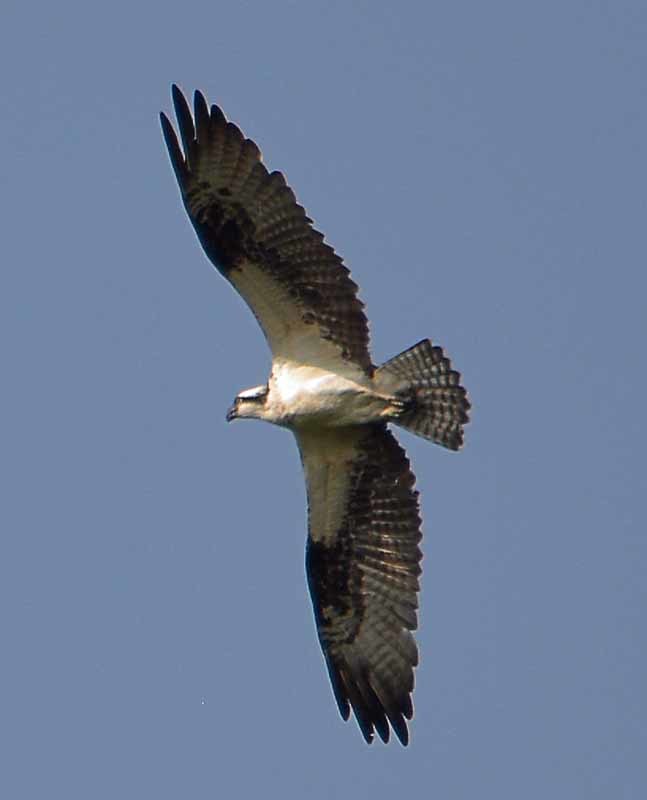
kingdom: Animalia
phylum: Chordata
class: Aves
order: Accipitriformes
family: Pandionidae
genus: Pandion
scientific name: Pandion haliaetus
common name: Osprey
